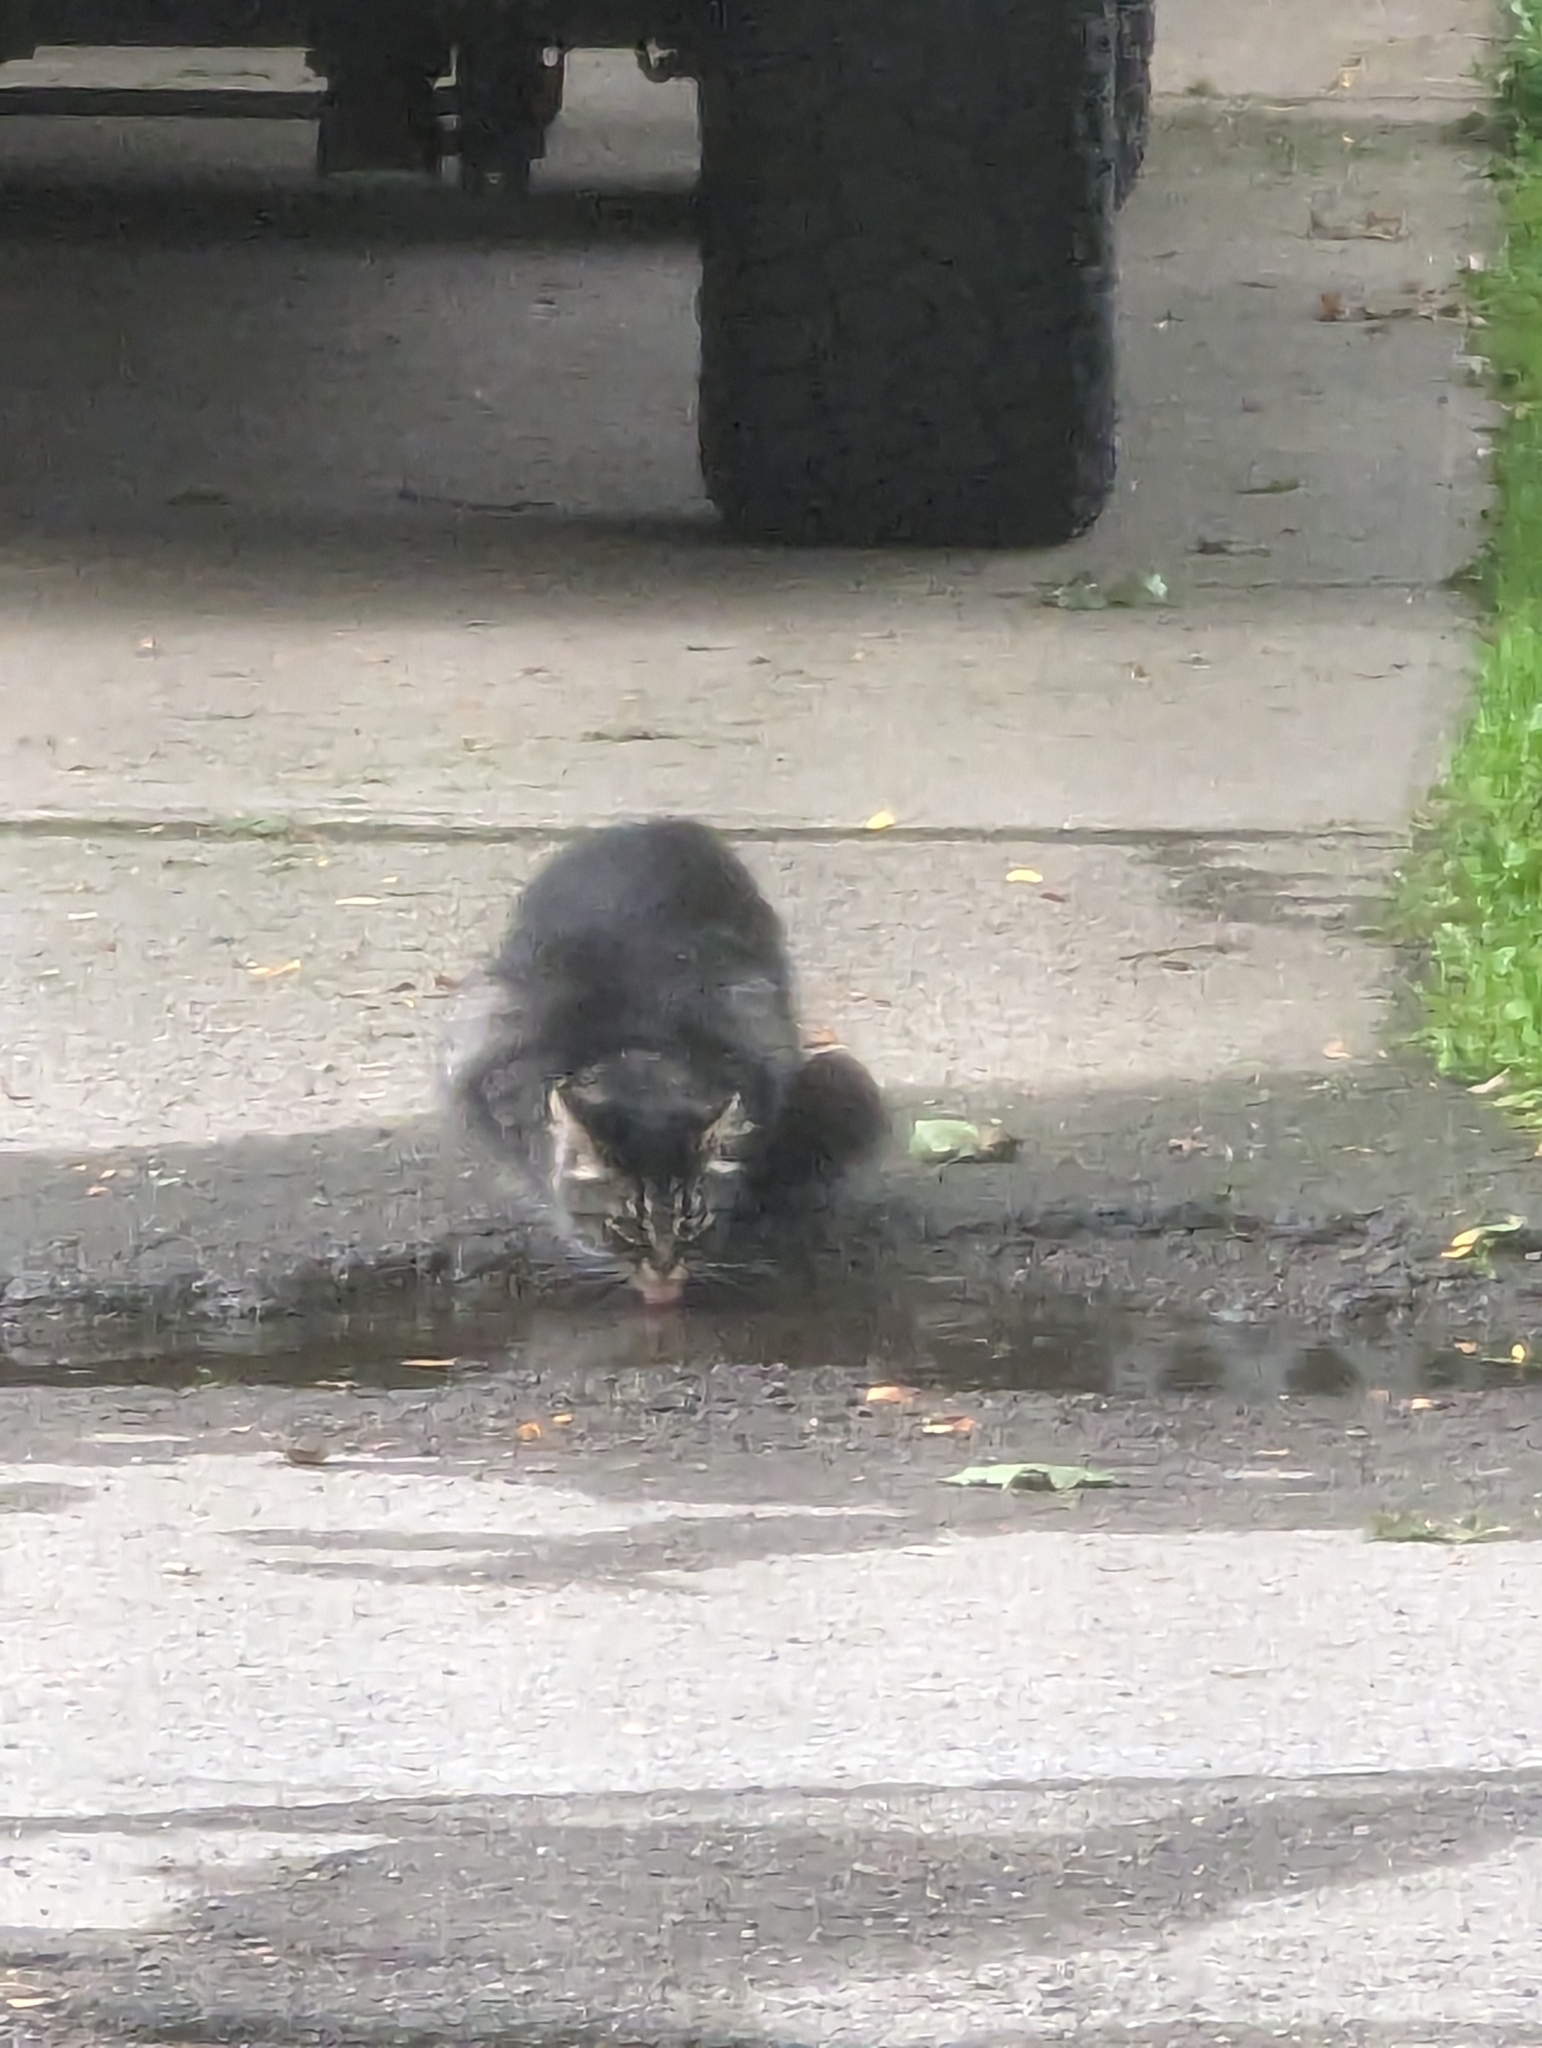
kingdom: Animalia
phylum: Chordata
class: Mammalia
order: Carnivora
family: Felidae
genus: Felis
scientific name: Felis catus
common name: Domestic cat
